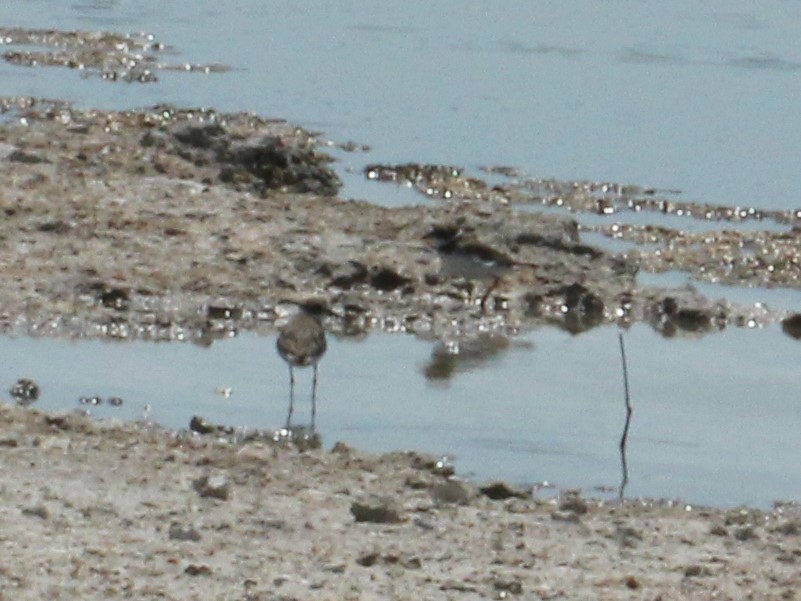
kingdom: Animalia
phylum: Chordata
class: Aves
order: Charadriiformes
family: Charadriidae
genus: Charadrius
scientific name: Charadrius semipalmatus
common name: Semipalmated plover
